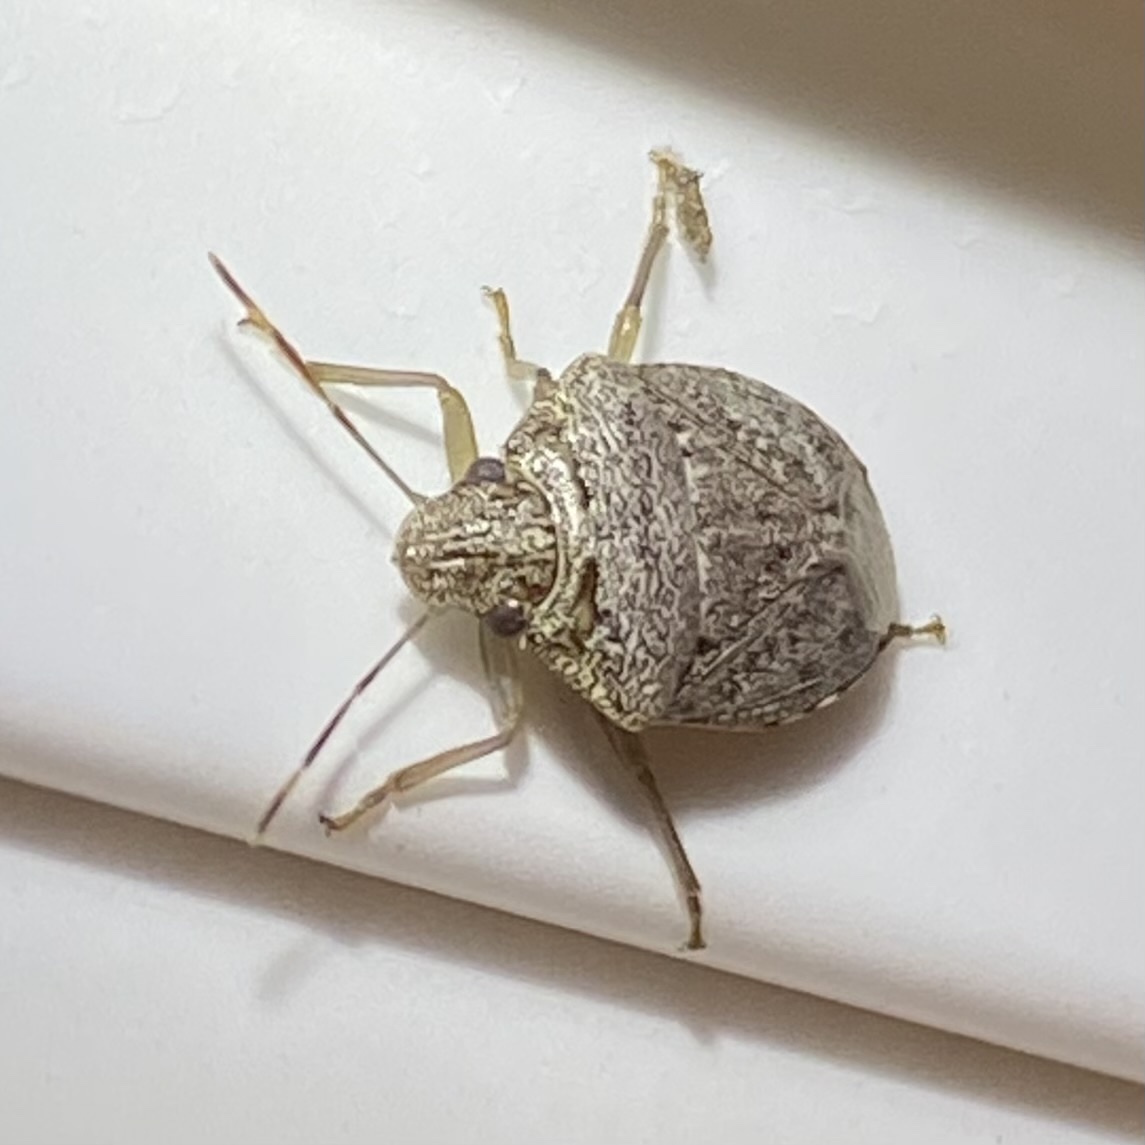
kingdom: Animalia
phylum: Arthropoda
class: Insecta
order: Hemiptera
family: Pentatomidae
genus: Banasa
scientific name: Banasa grisea
